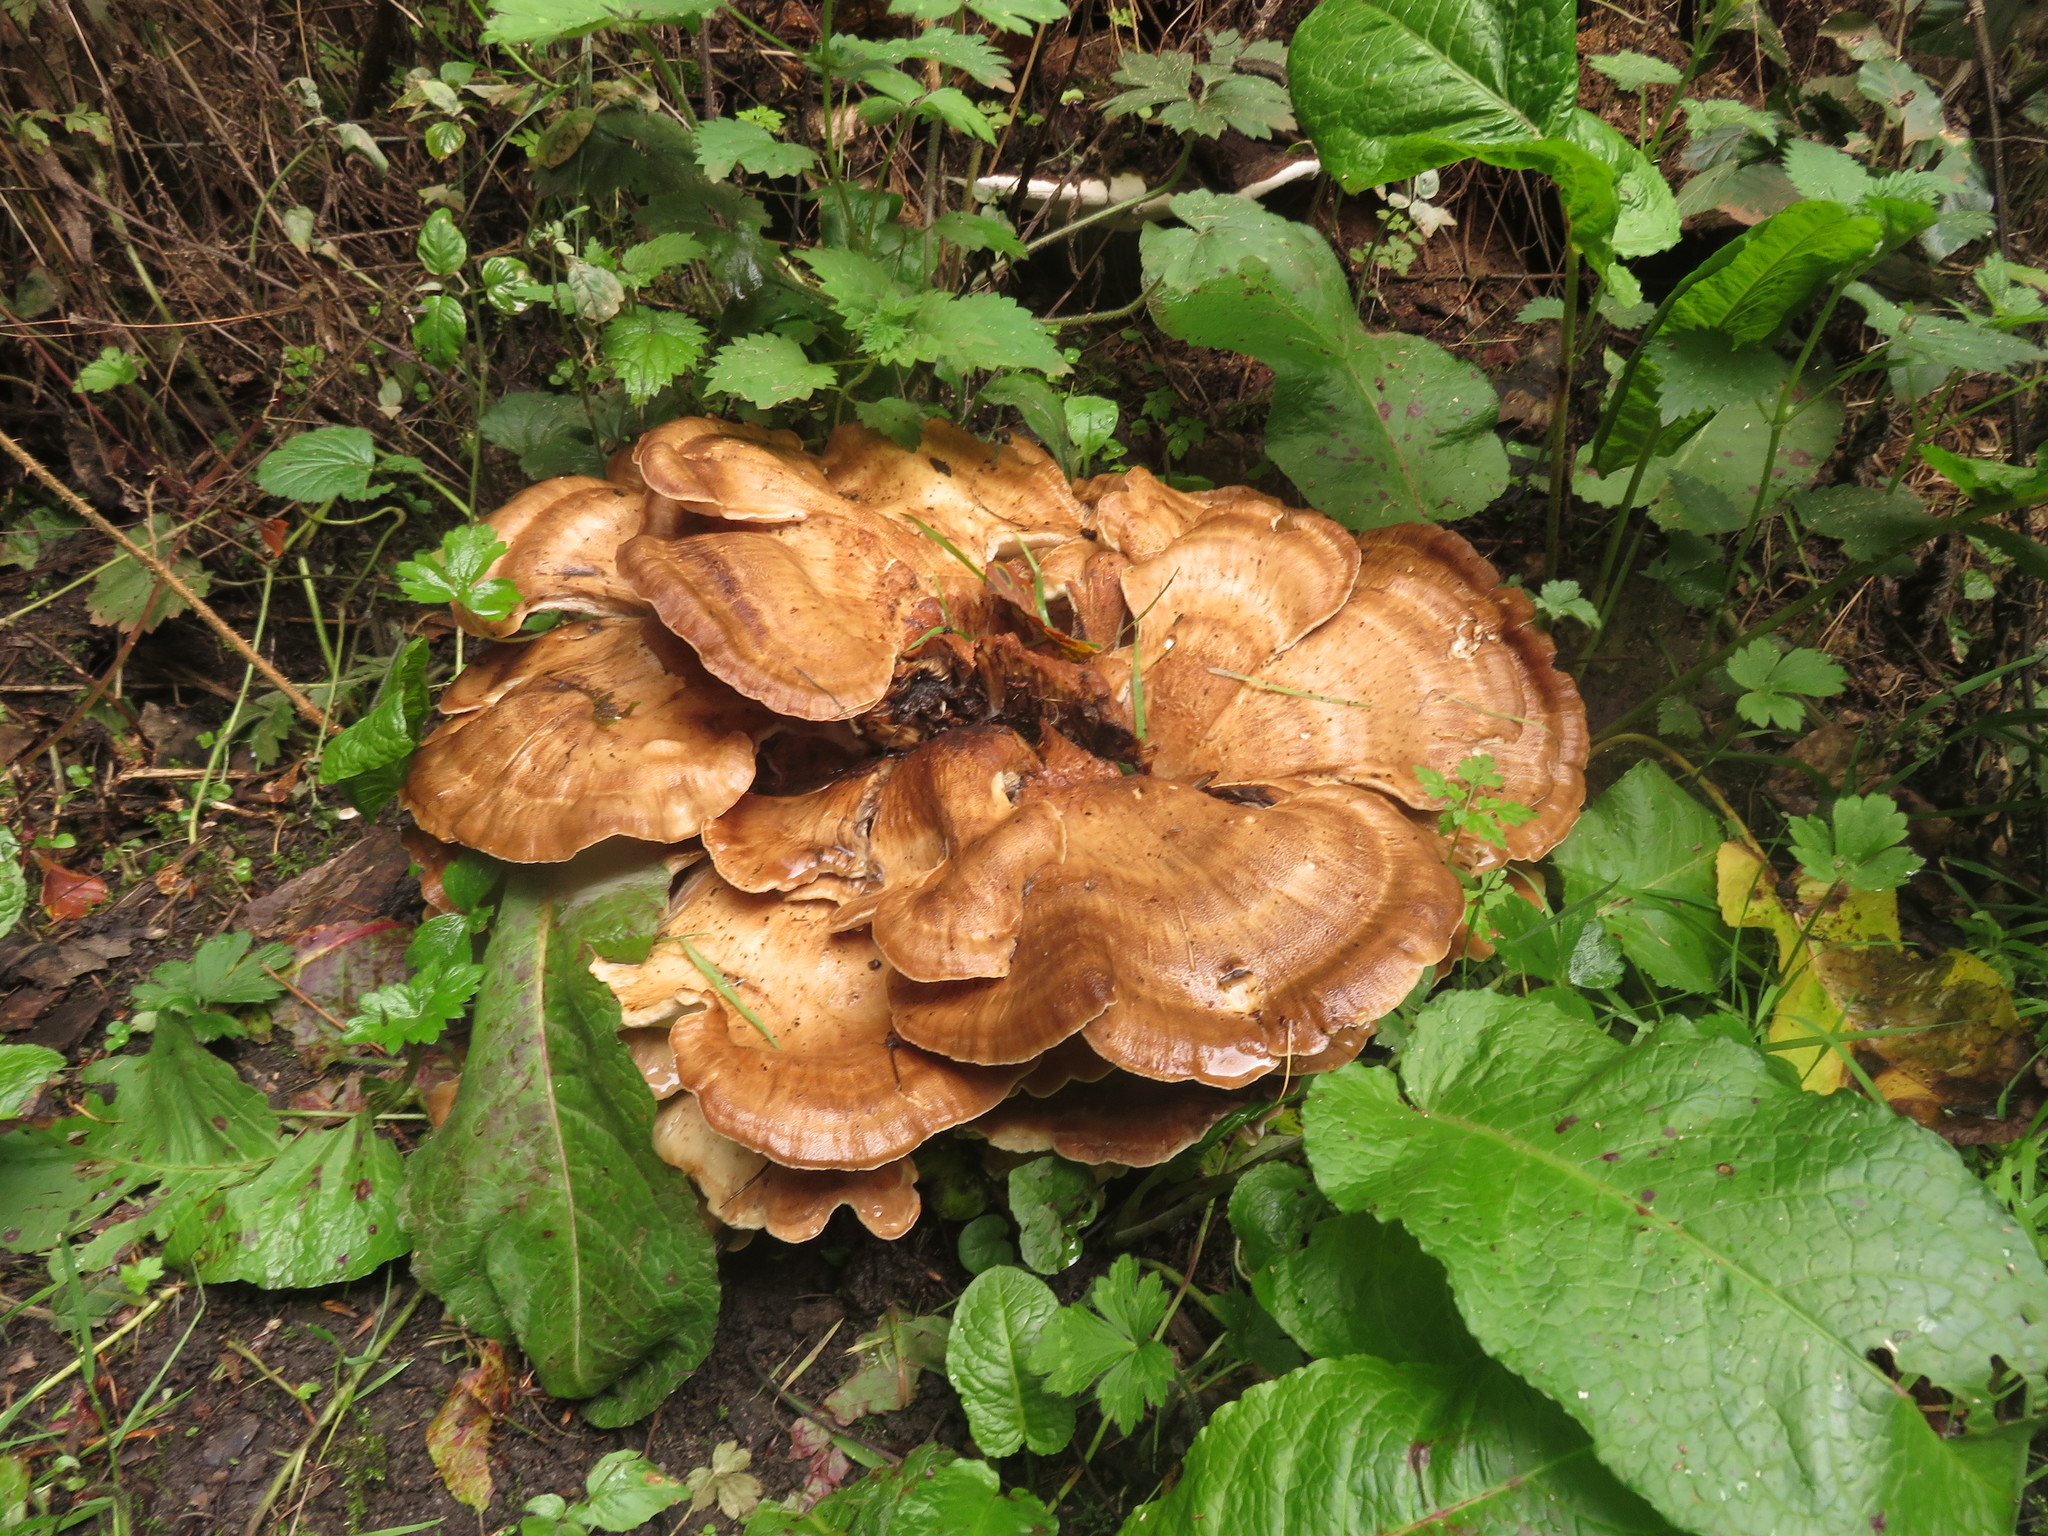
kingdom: Fungi
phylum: Basidiomycota
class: Agaricomycetes
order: Polyporales
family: Meripilaceae
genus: Meripilus
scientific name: Meripilus giganteus
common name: Giant polypore
